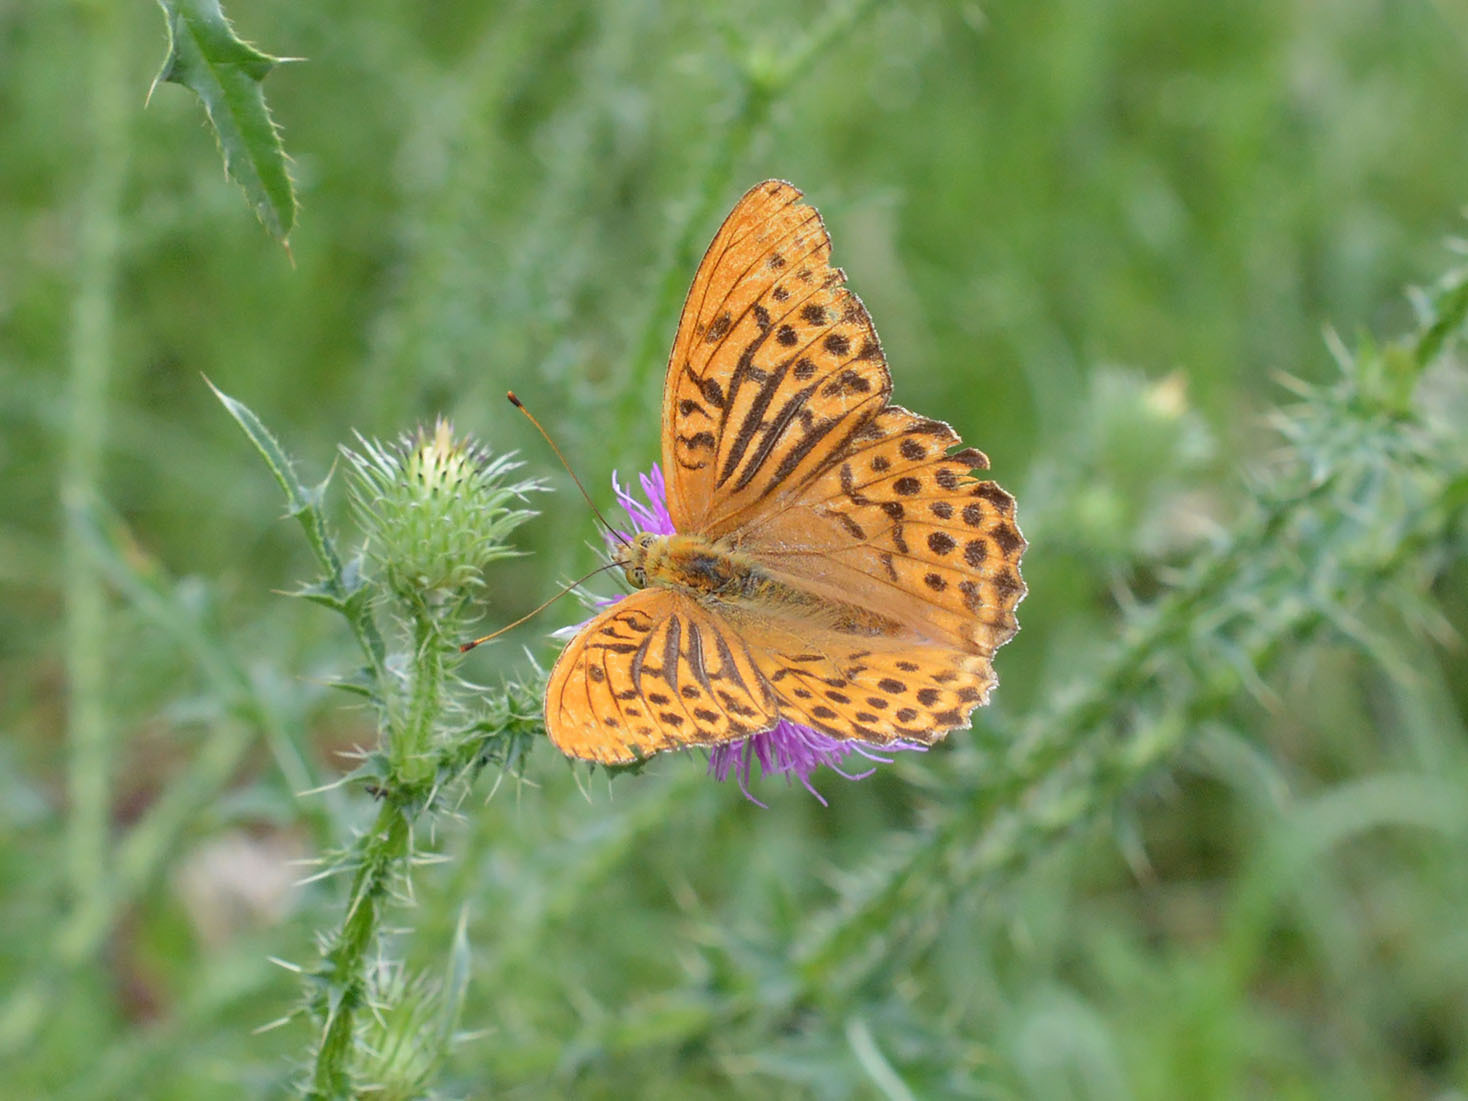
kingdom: Animalia
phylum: Arthropoda
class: Insecta
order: Lepidoptera
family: Nymphalidae
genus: Argynnis
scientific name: Argynnis paphia
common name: Silver-washed fritillary
